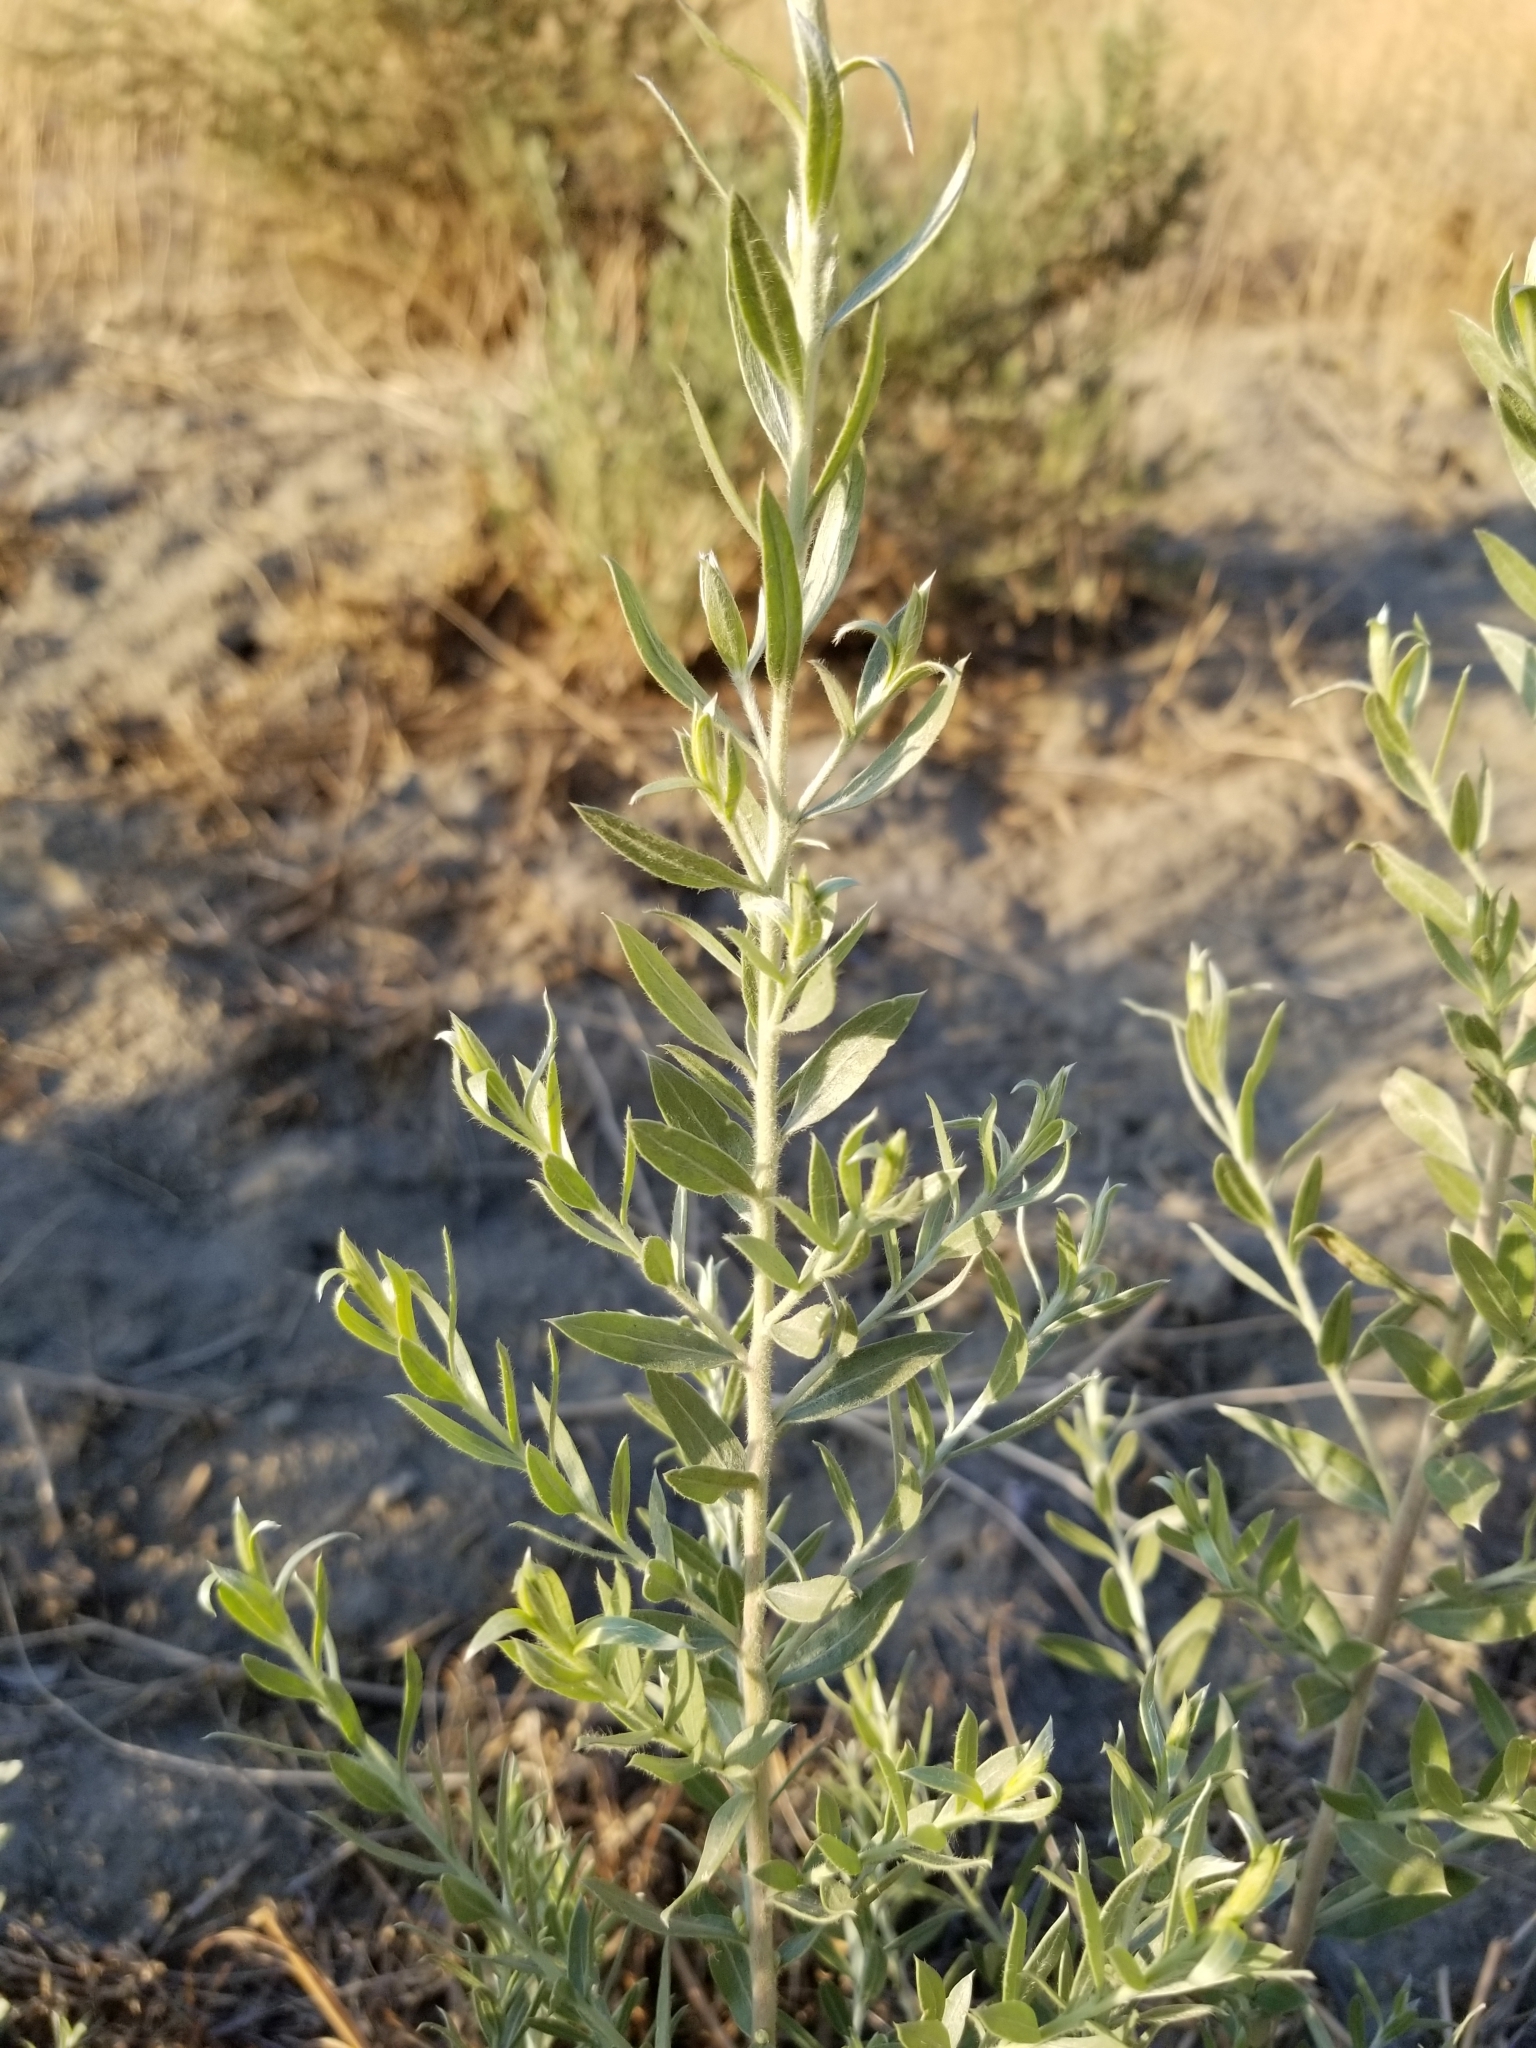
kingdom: Plantae
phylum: Tracheophyta
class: Magnoliopsida
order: Asterales
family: Asteraceae
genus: Pluchea
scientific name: Pluchea sericea
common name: Arrow-weed
